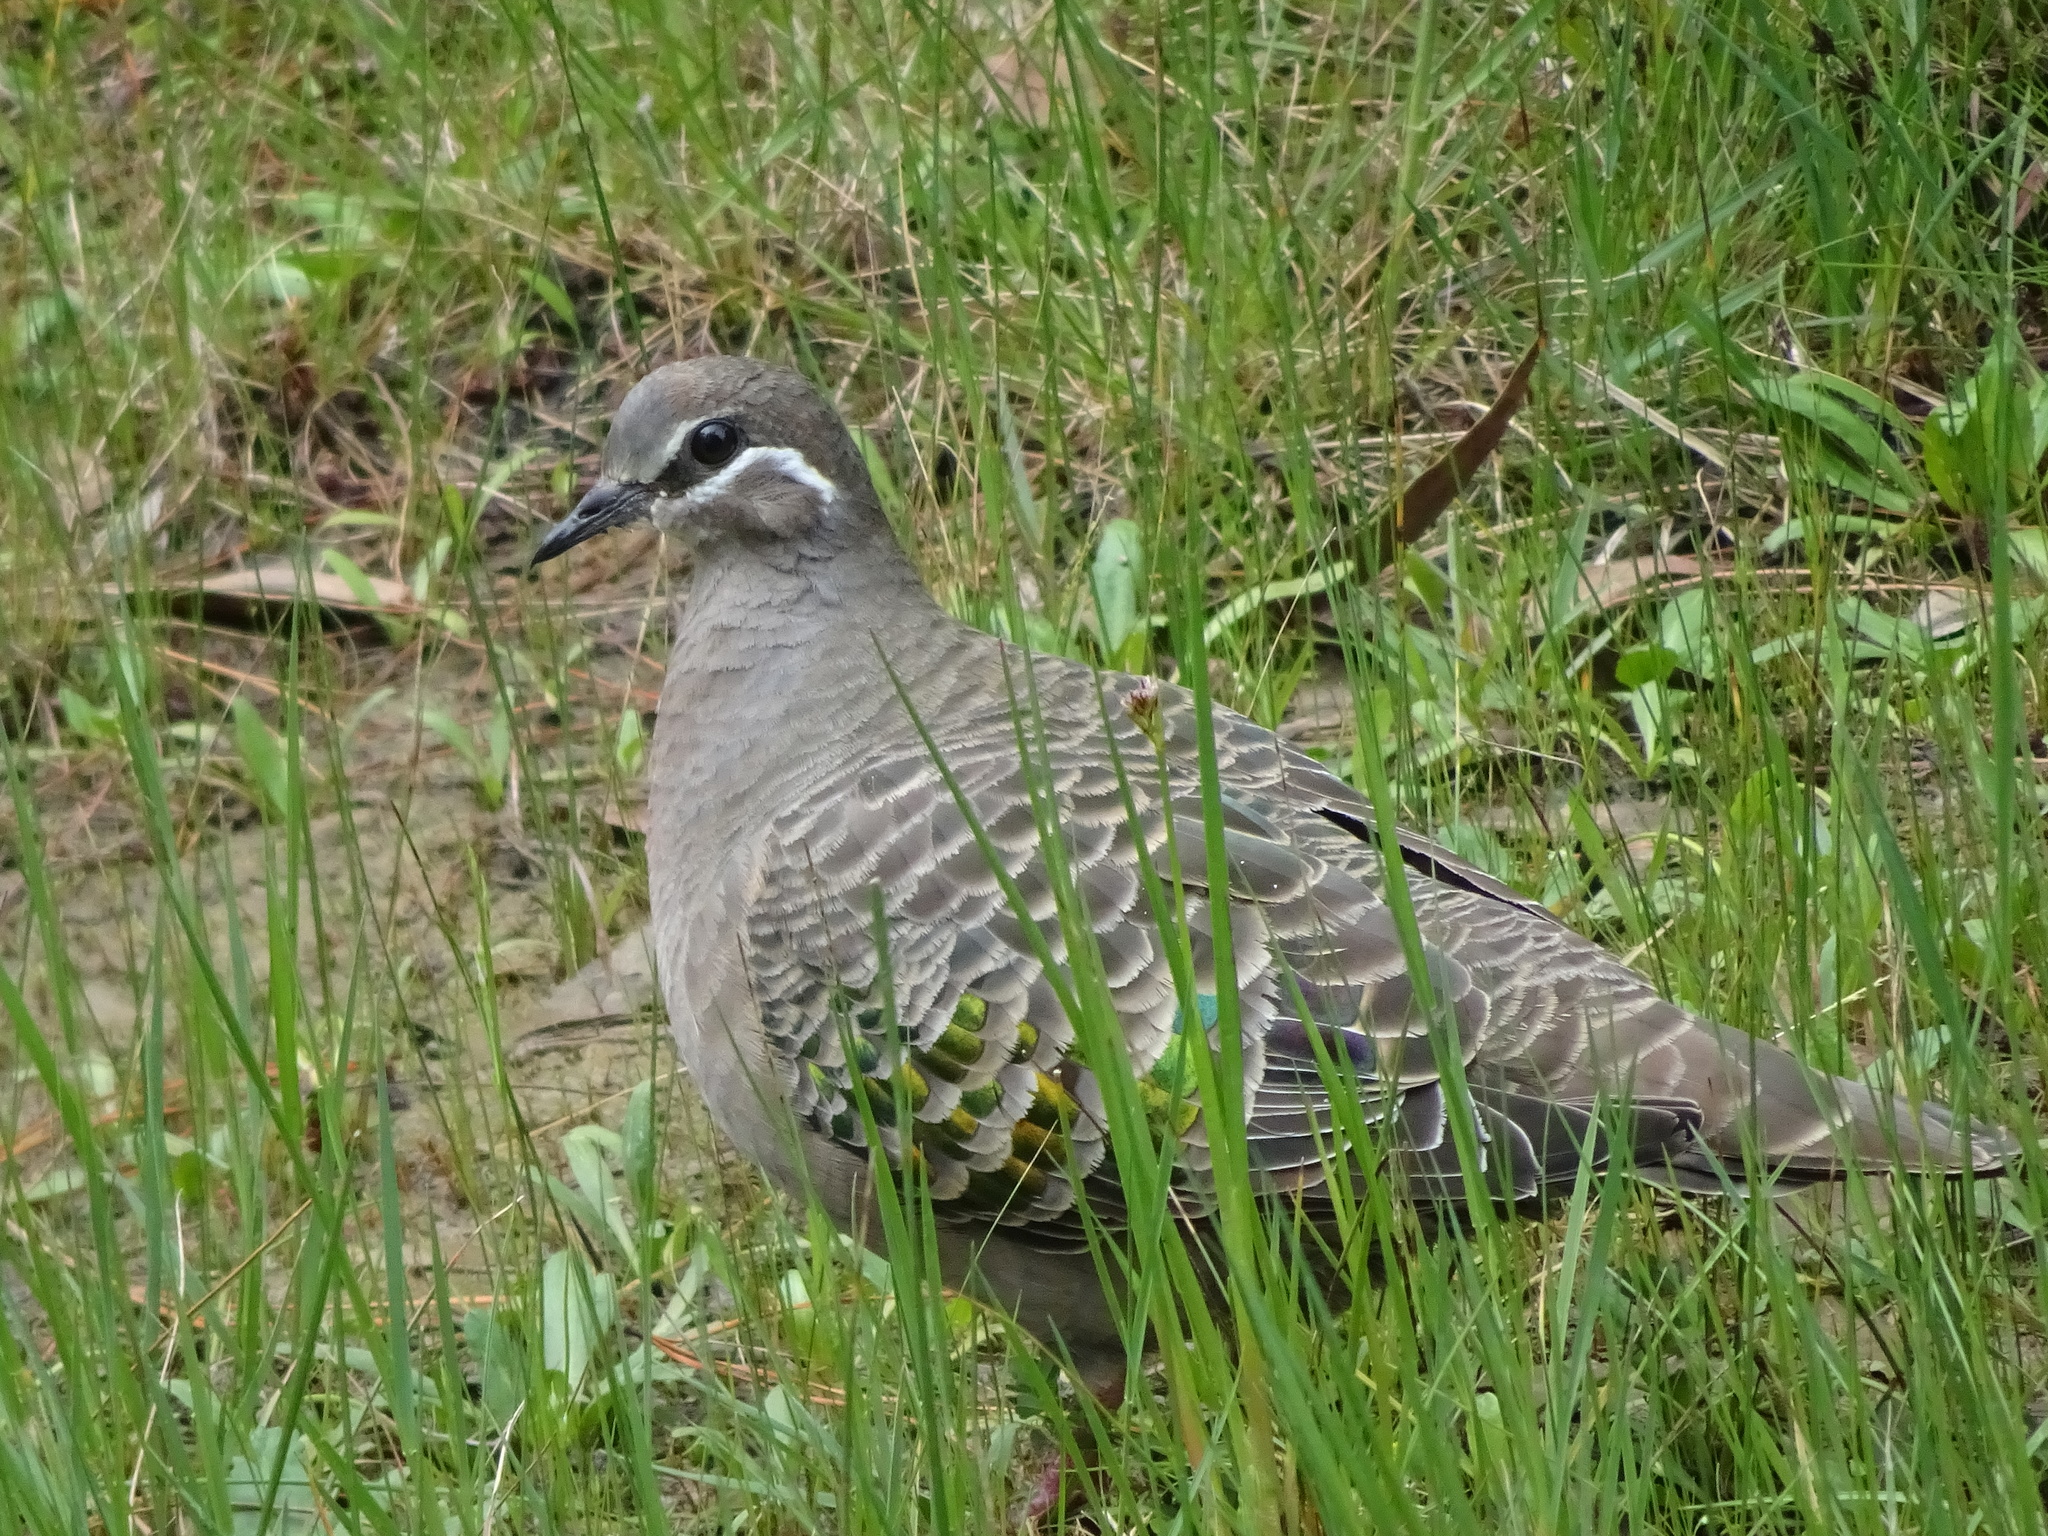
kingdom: Animalia
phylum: Chordata
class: Aves
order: Columbiformes
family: Columbidae
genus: Phaps
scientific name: Phaps chalcoptera
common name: Common bronzewing
